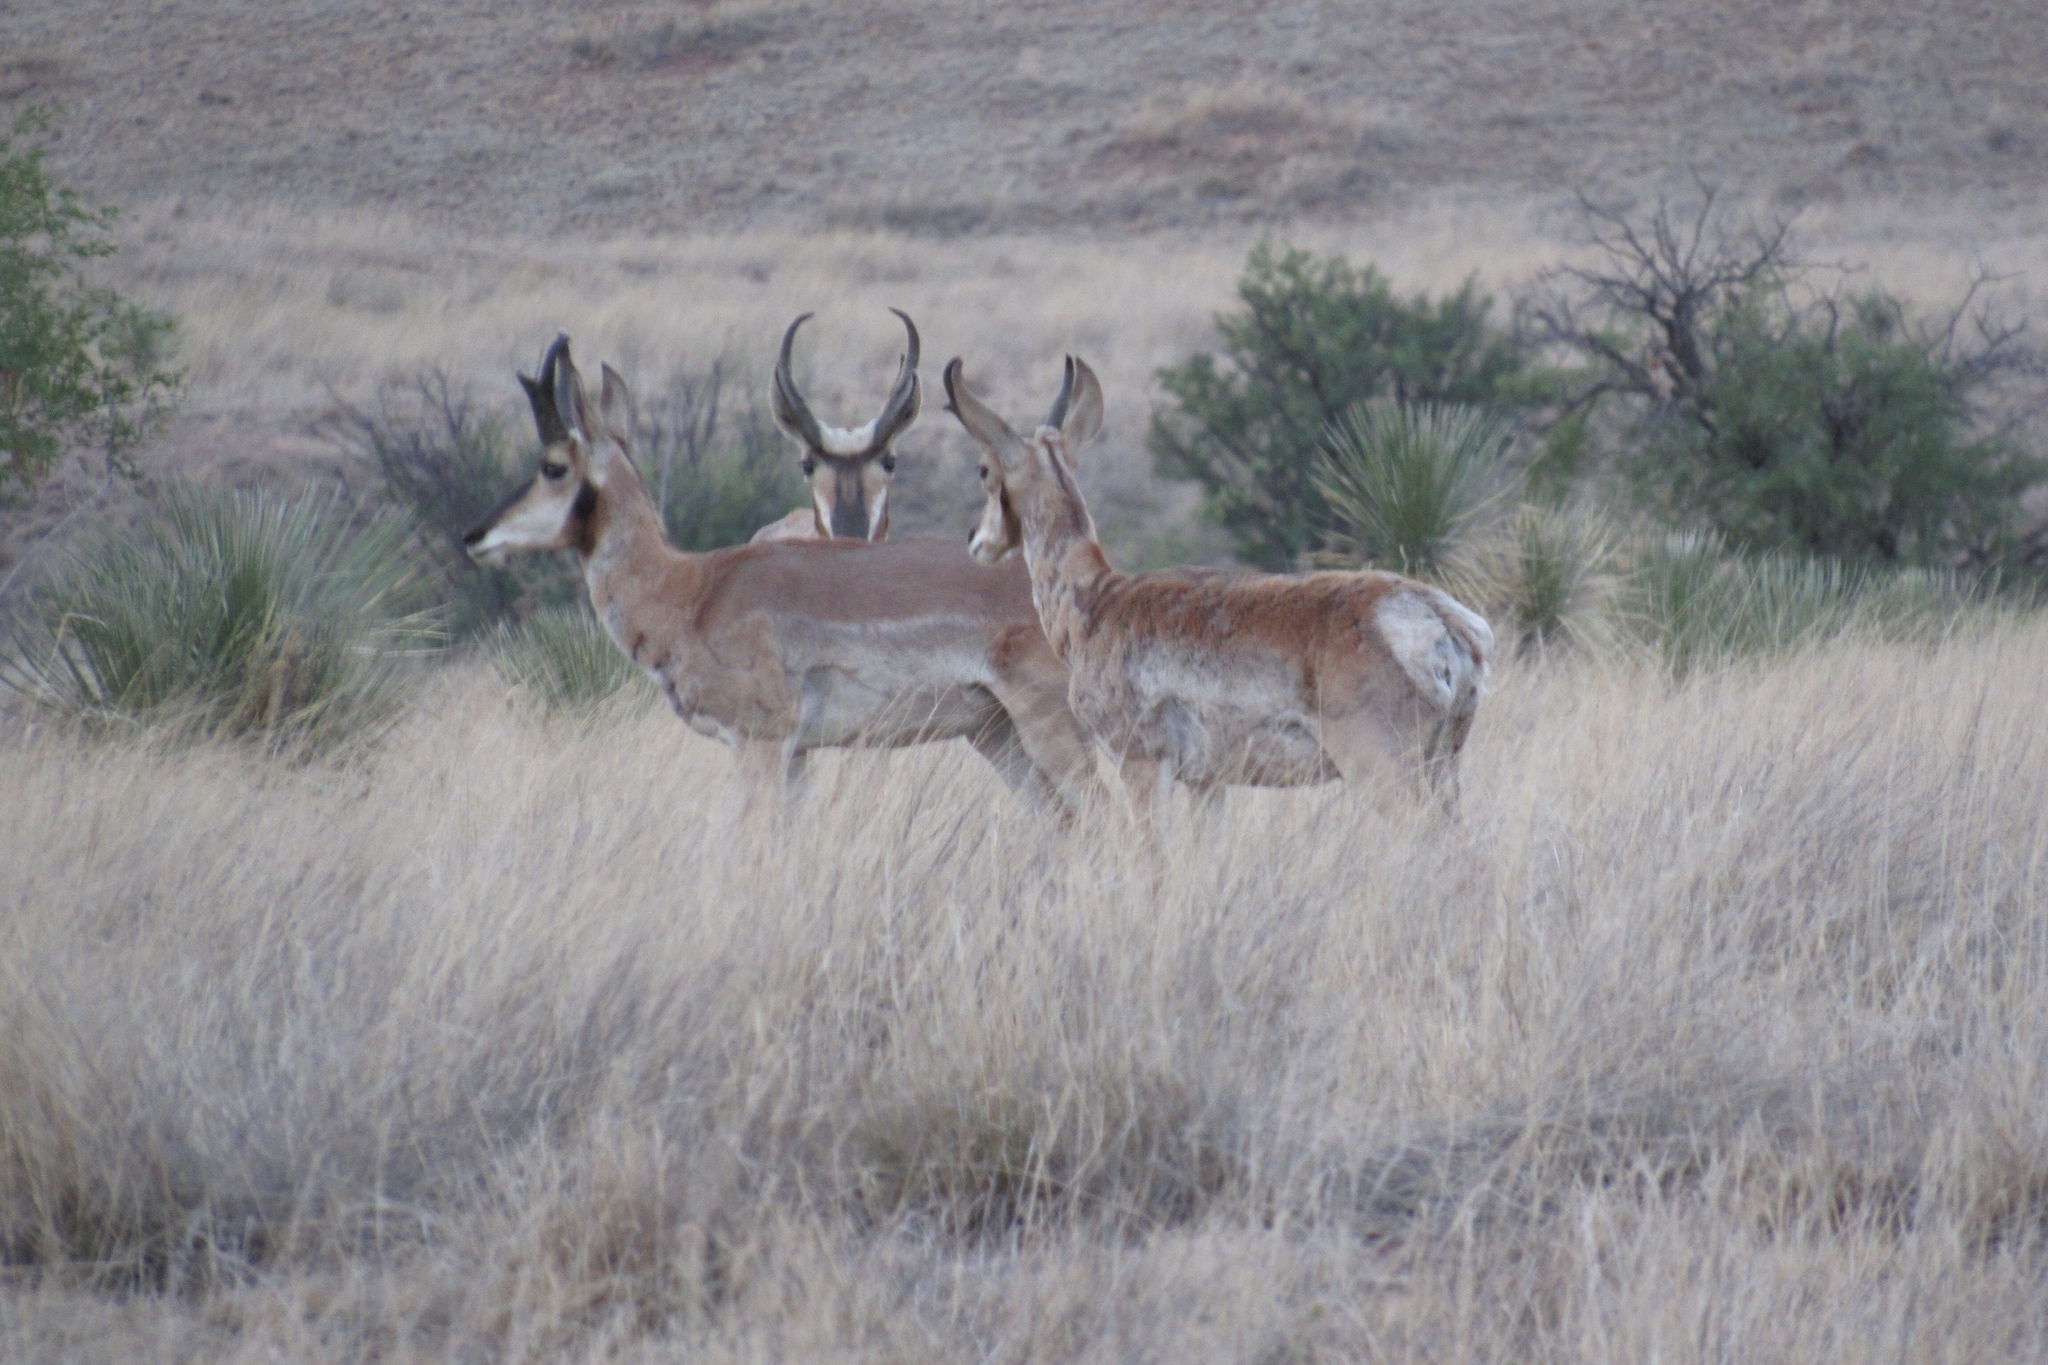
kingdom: Animalia
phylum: Chordata
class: Mammalia
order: Artiodactyla
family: Antilocapridae
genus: Antilocapra
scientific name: Antilocapra americana
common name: Pronghorn
